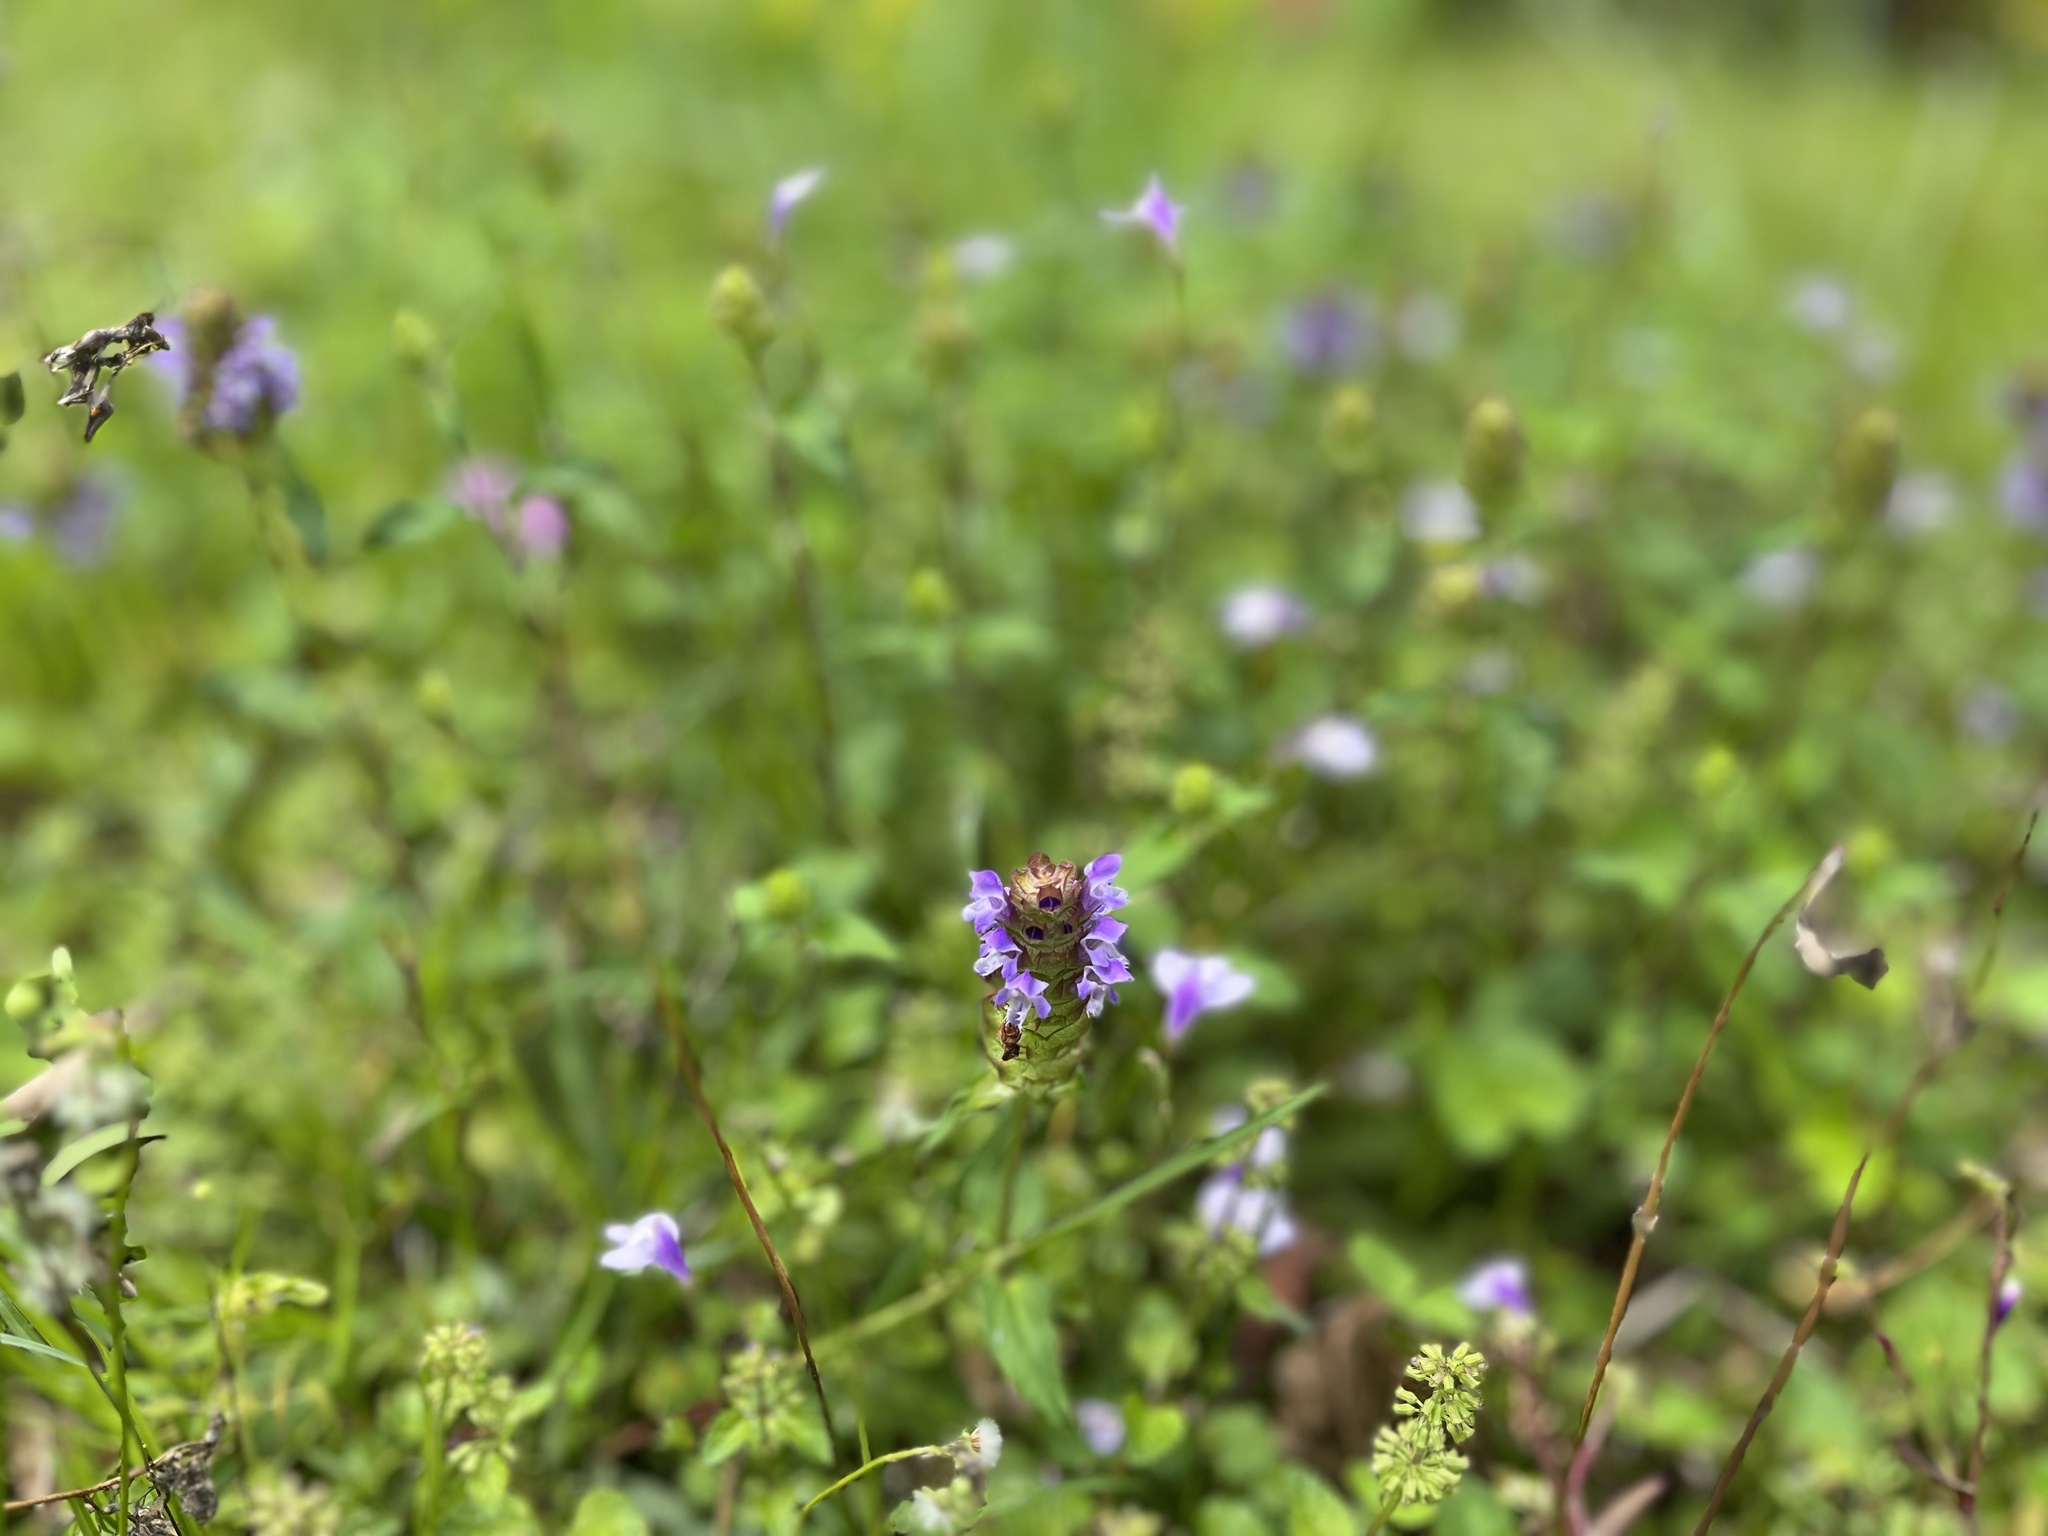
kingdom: Plantae
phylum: Tracheophyta
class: Magnoliopsida
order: Lamiales
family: Lamiaceae
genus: Prunella
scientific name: Prunella vulgaris
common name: Heal-all
